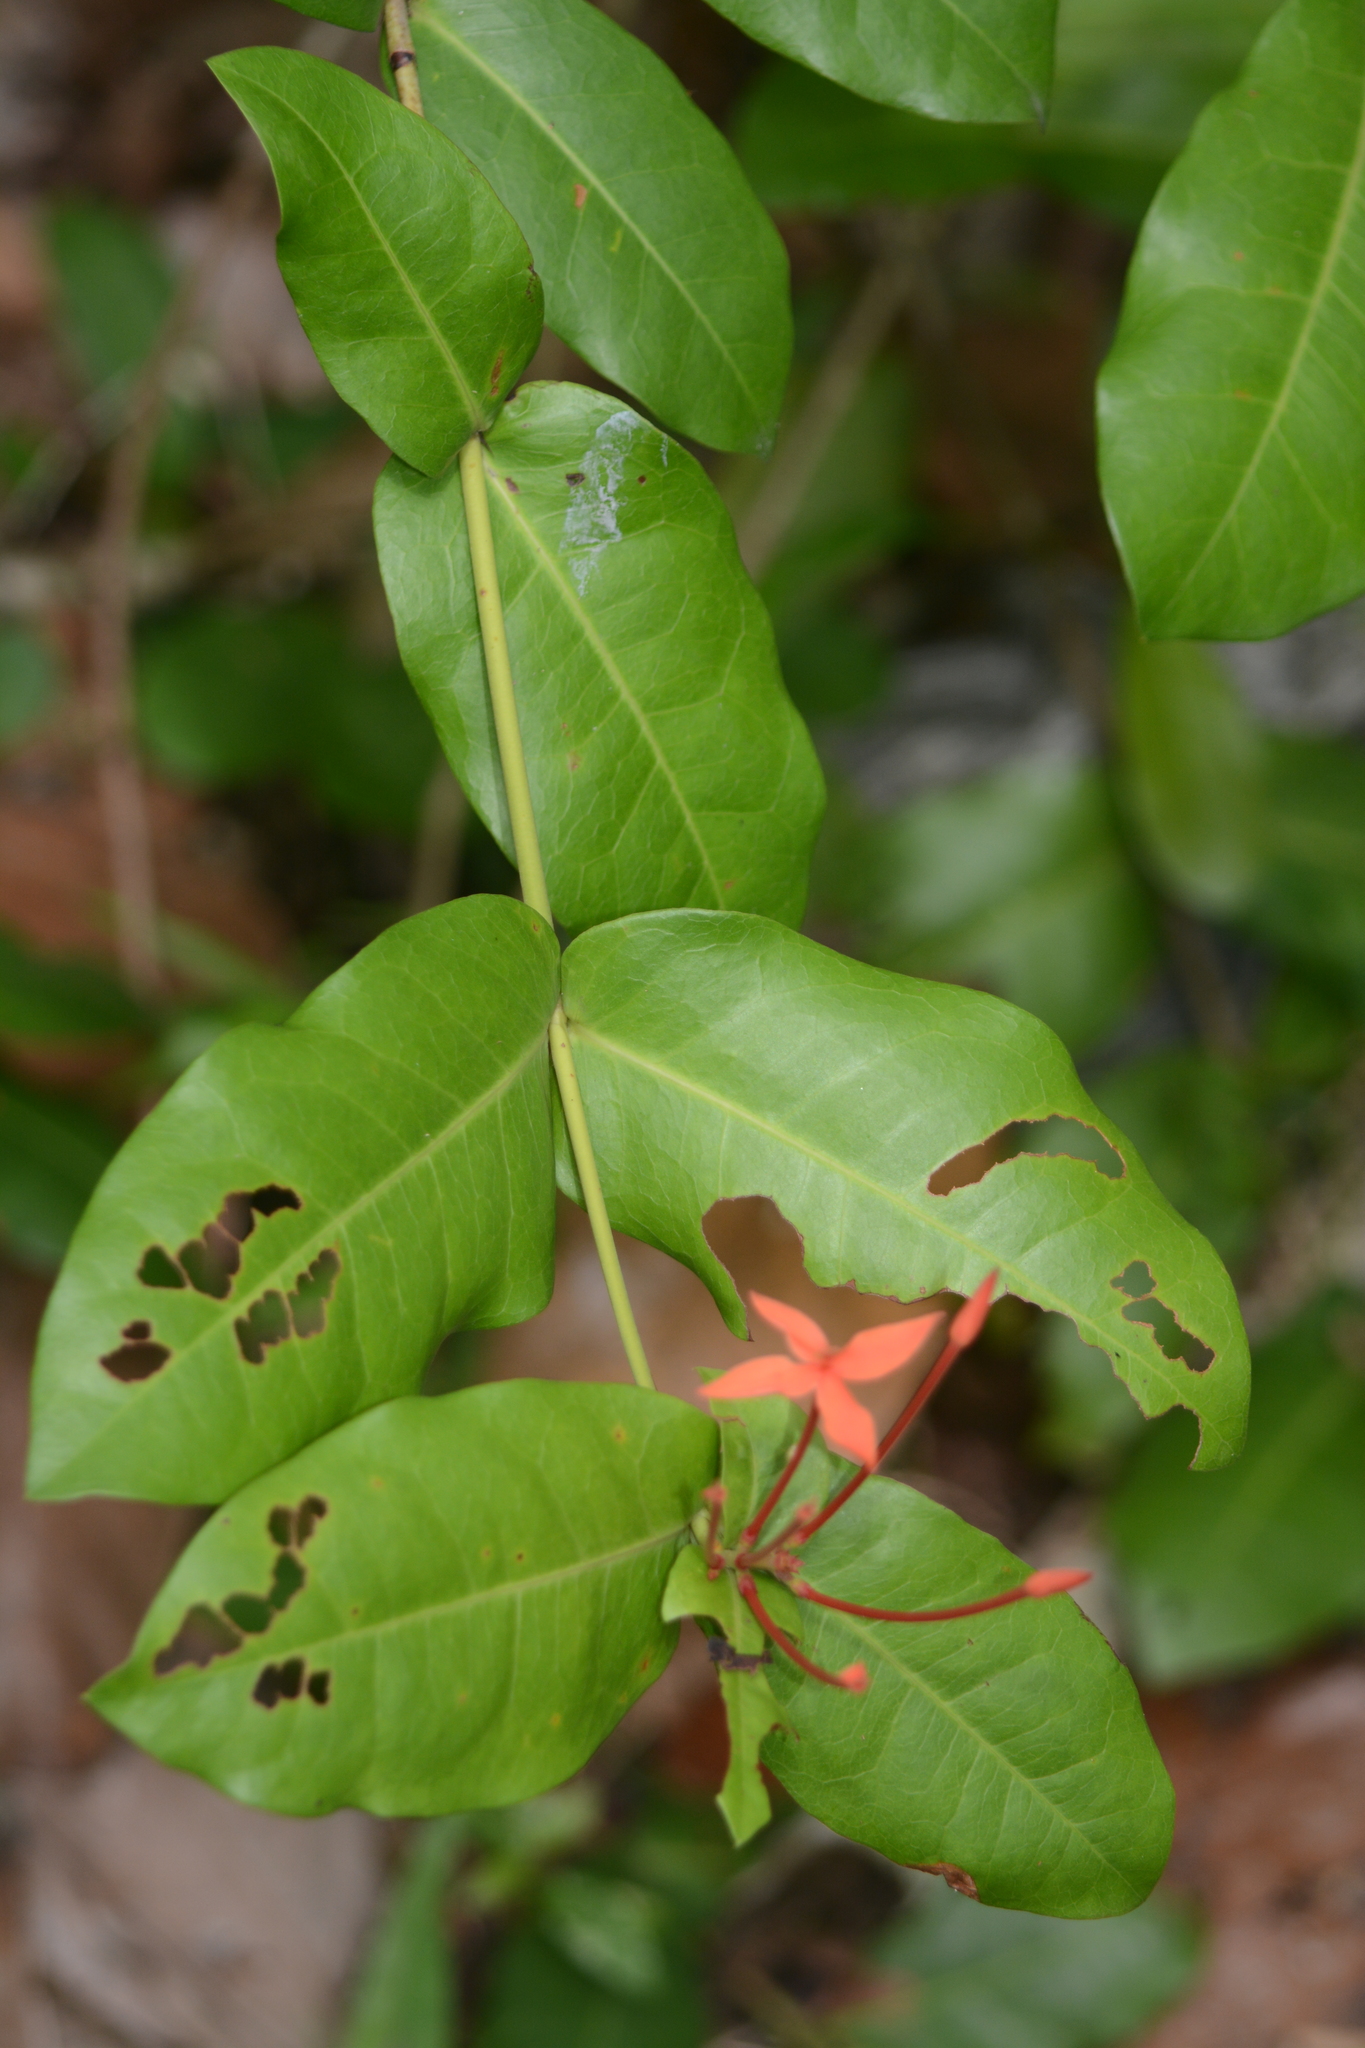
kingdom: Plantae
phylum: Tracheophyta
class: Magnoliopsida
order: Gentianales
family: Rubiaceae
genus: Ixora
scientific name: Ixora chinensis
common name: Chinese ixora
